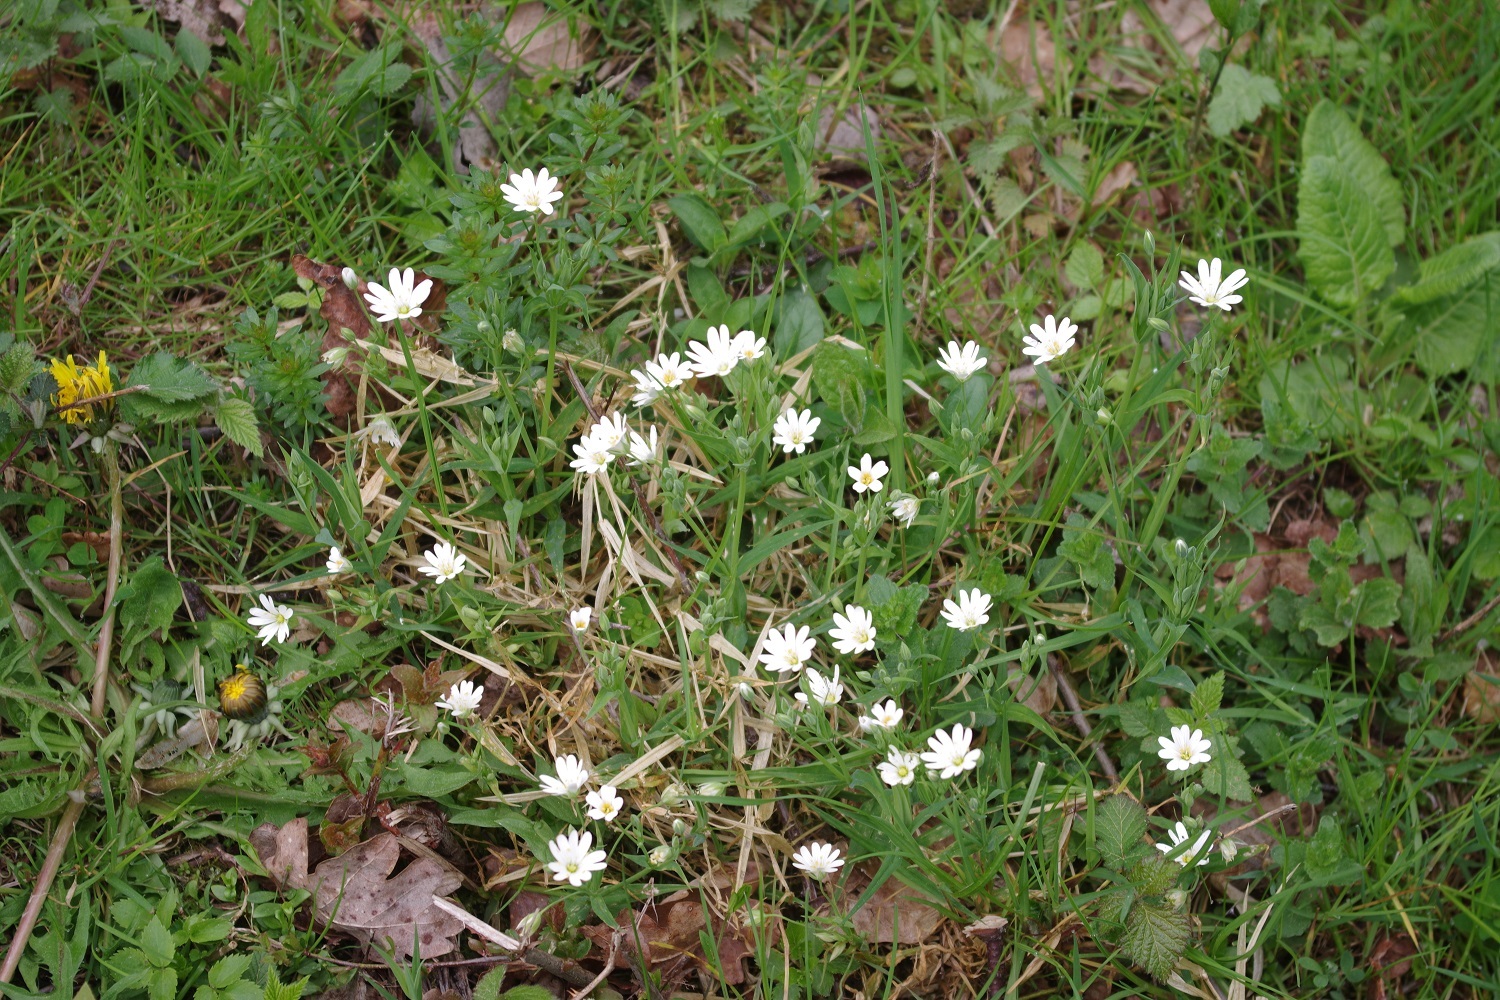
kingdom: Plantae
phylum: Tracheophyta
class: Magnoliopsida
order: Caryophyllales
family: Caryophyllaceae
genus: Rabelera
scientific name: Rabelera holostea
